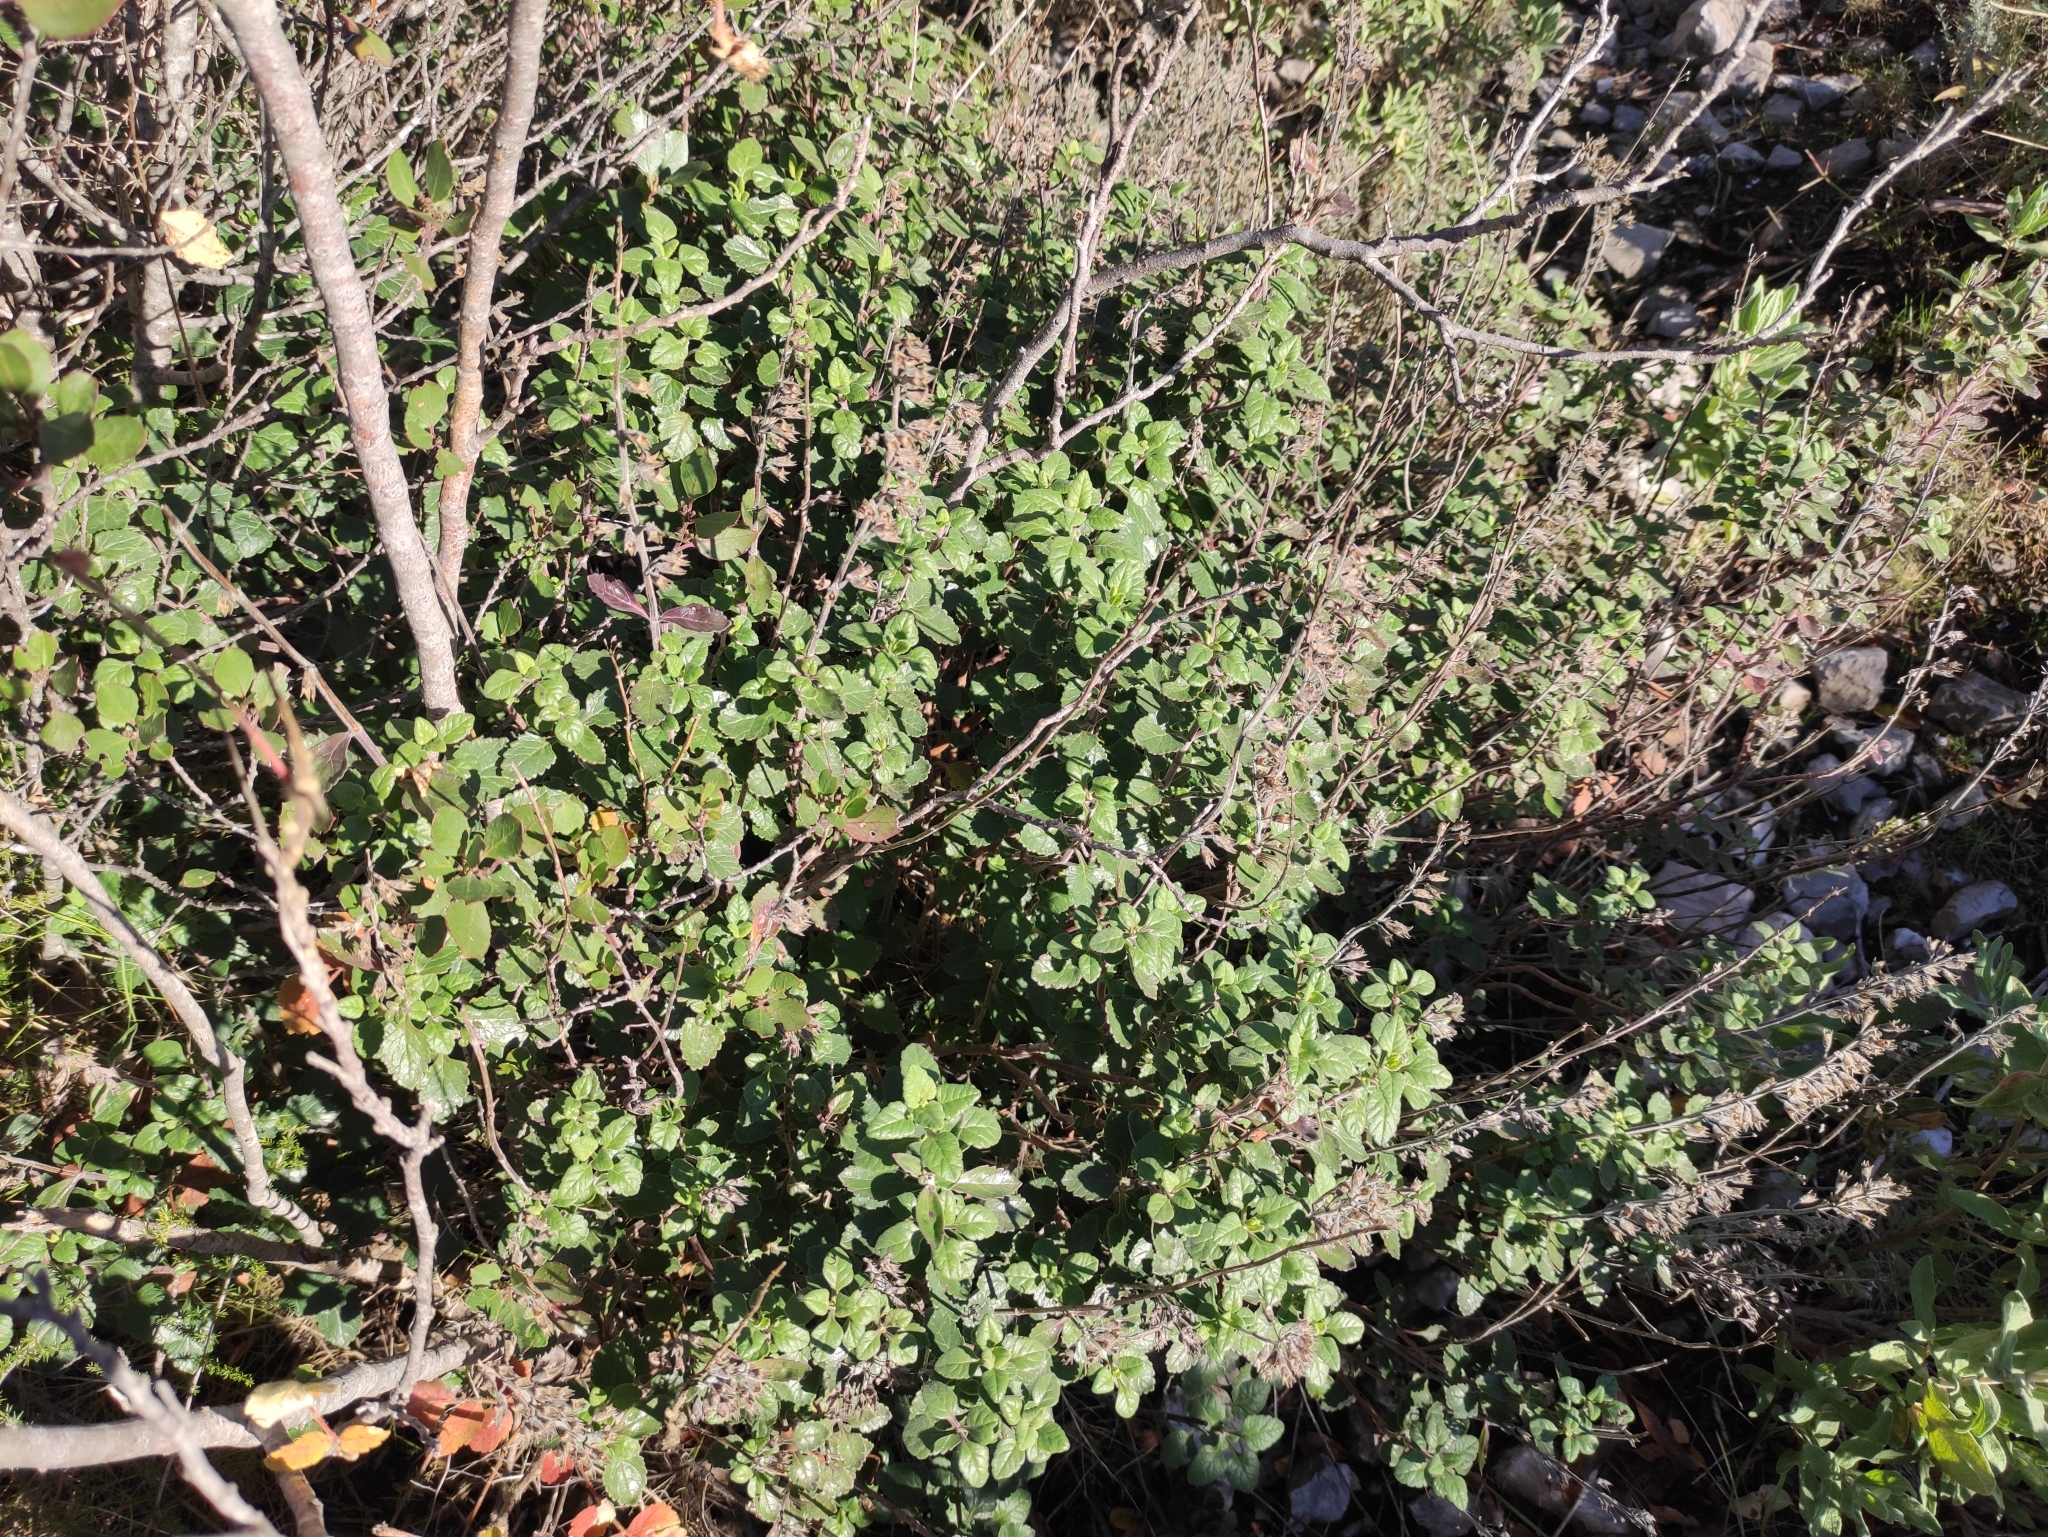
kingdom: Plantae
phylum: Tracheophyta
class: Magnoliopsida
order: Lamiales
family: Lamiaceae
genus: Teucrium
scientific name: Teucrium flavum
